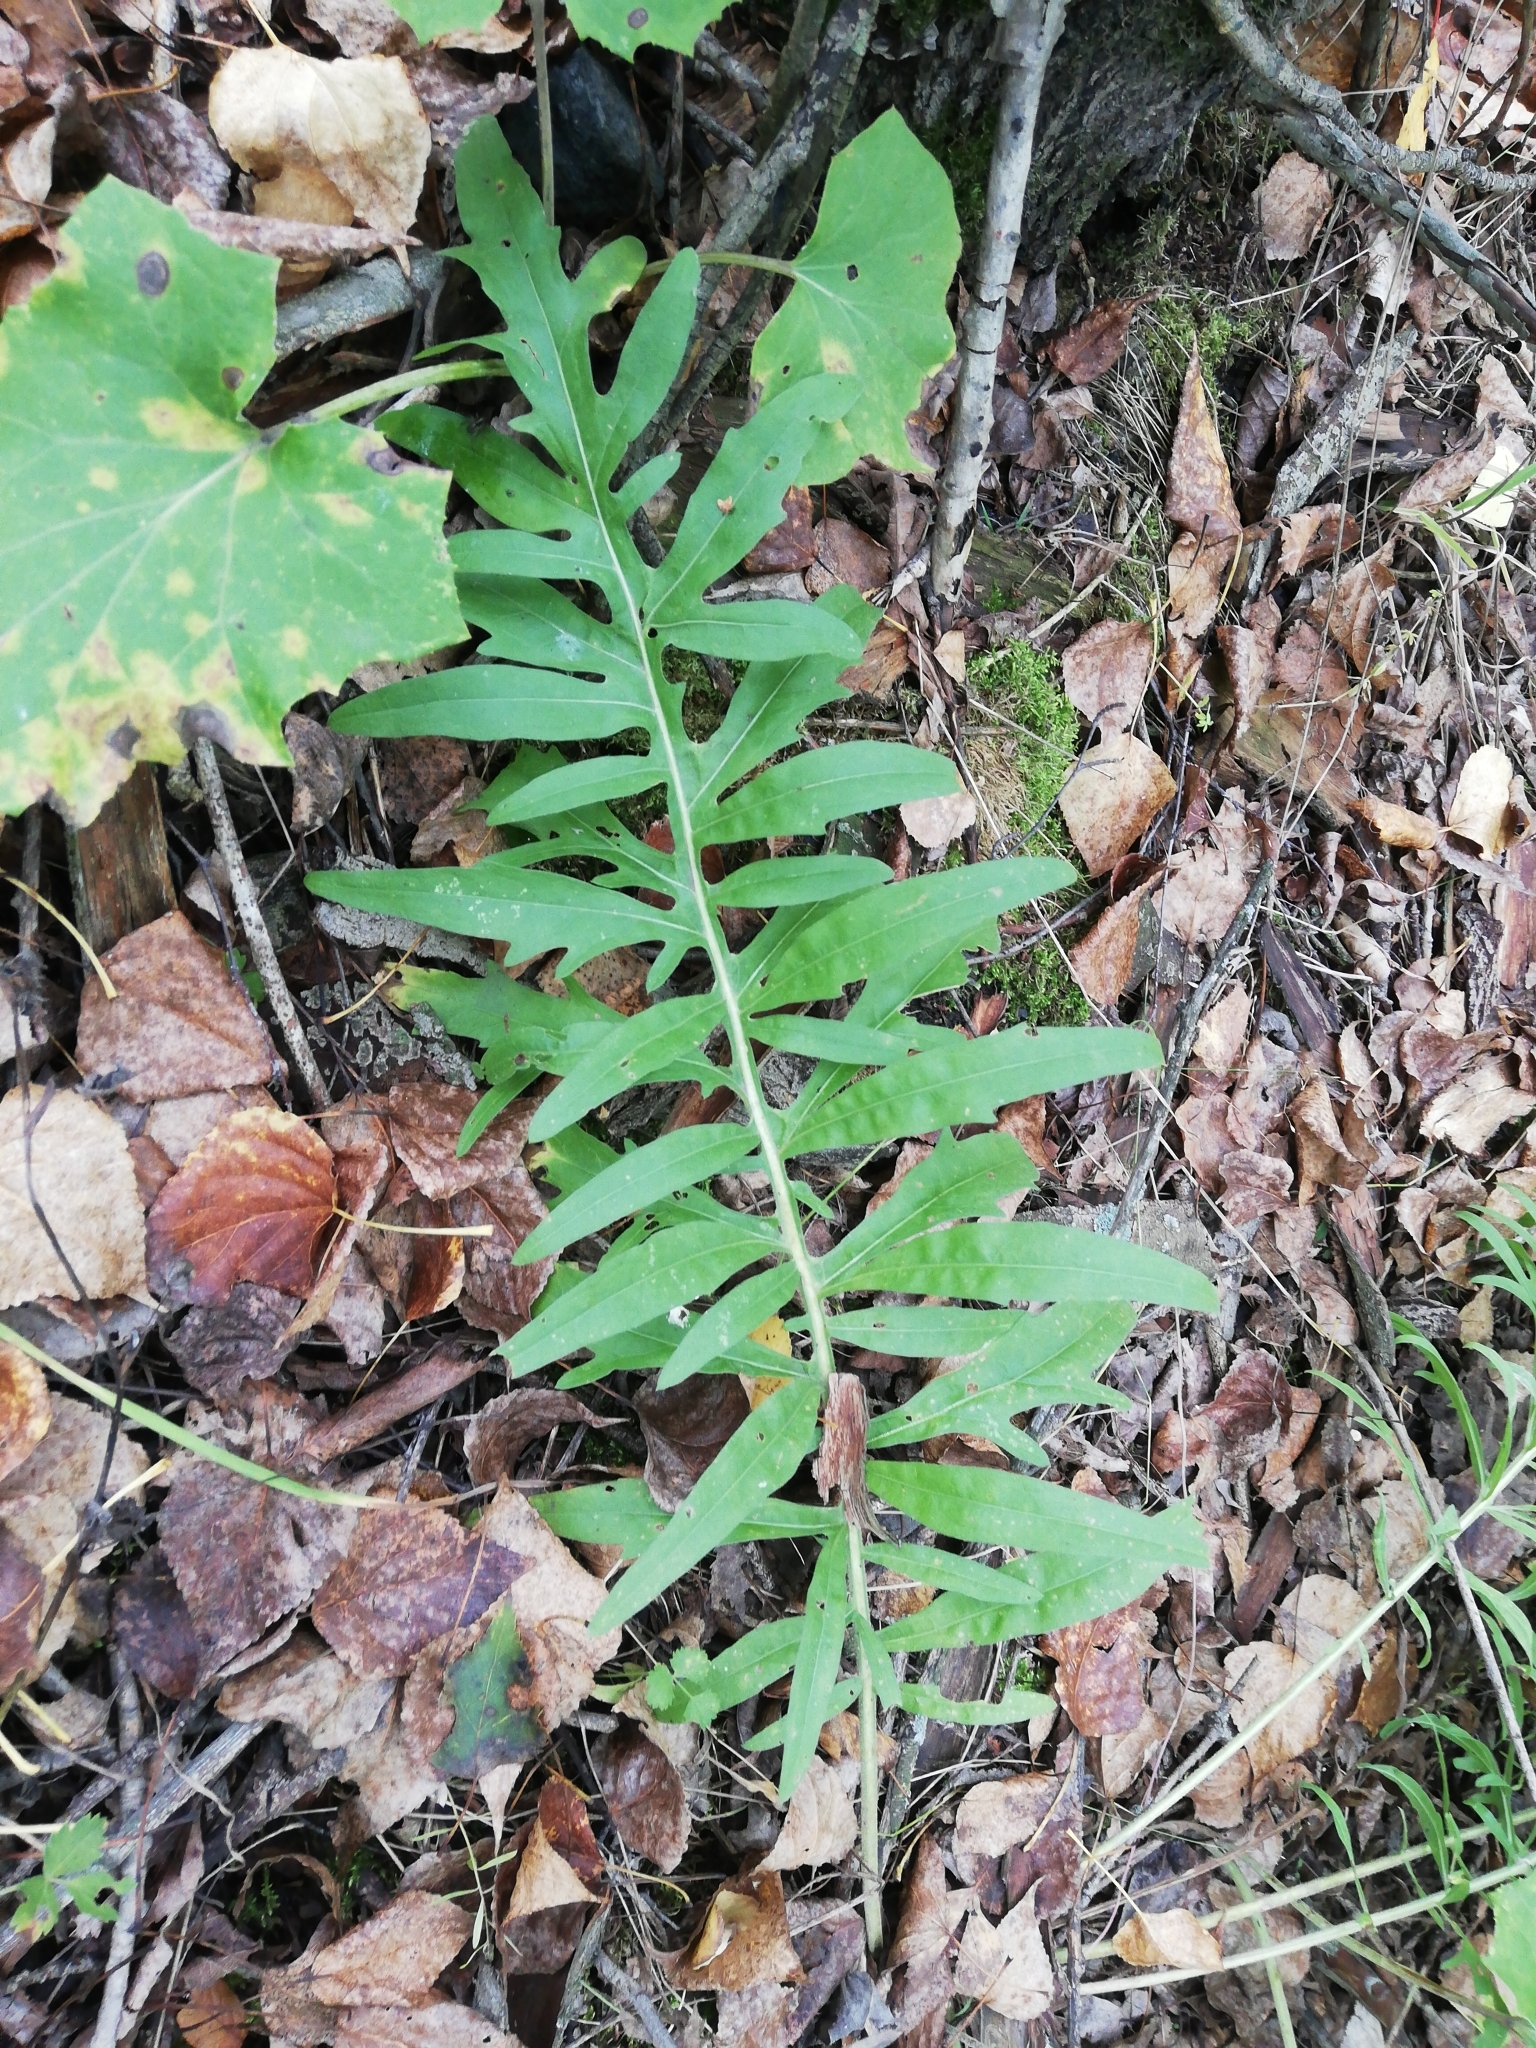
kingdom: Plantae
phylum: Tracheophyta
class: Magnoliopsida
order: Asterales
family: Asteraceae
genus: Centaurea
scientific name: Centaurea scabiosa
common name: Greater knapweed
